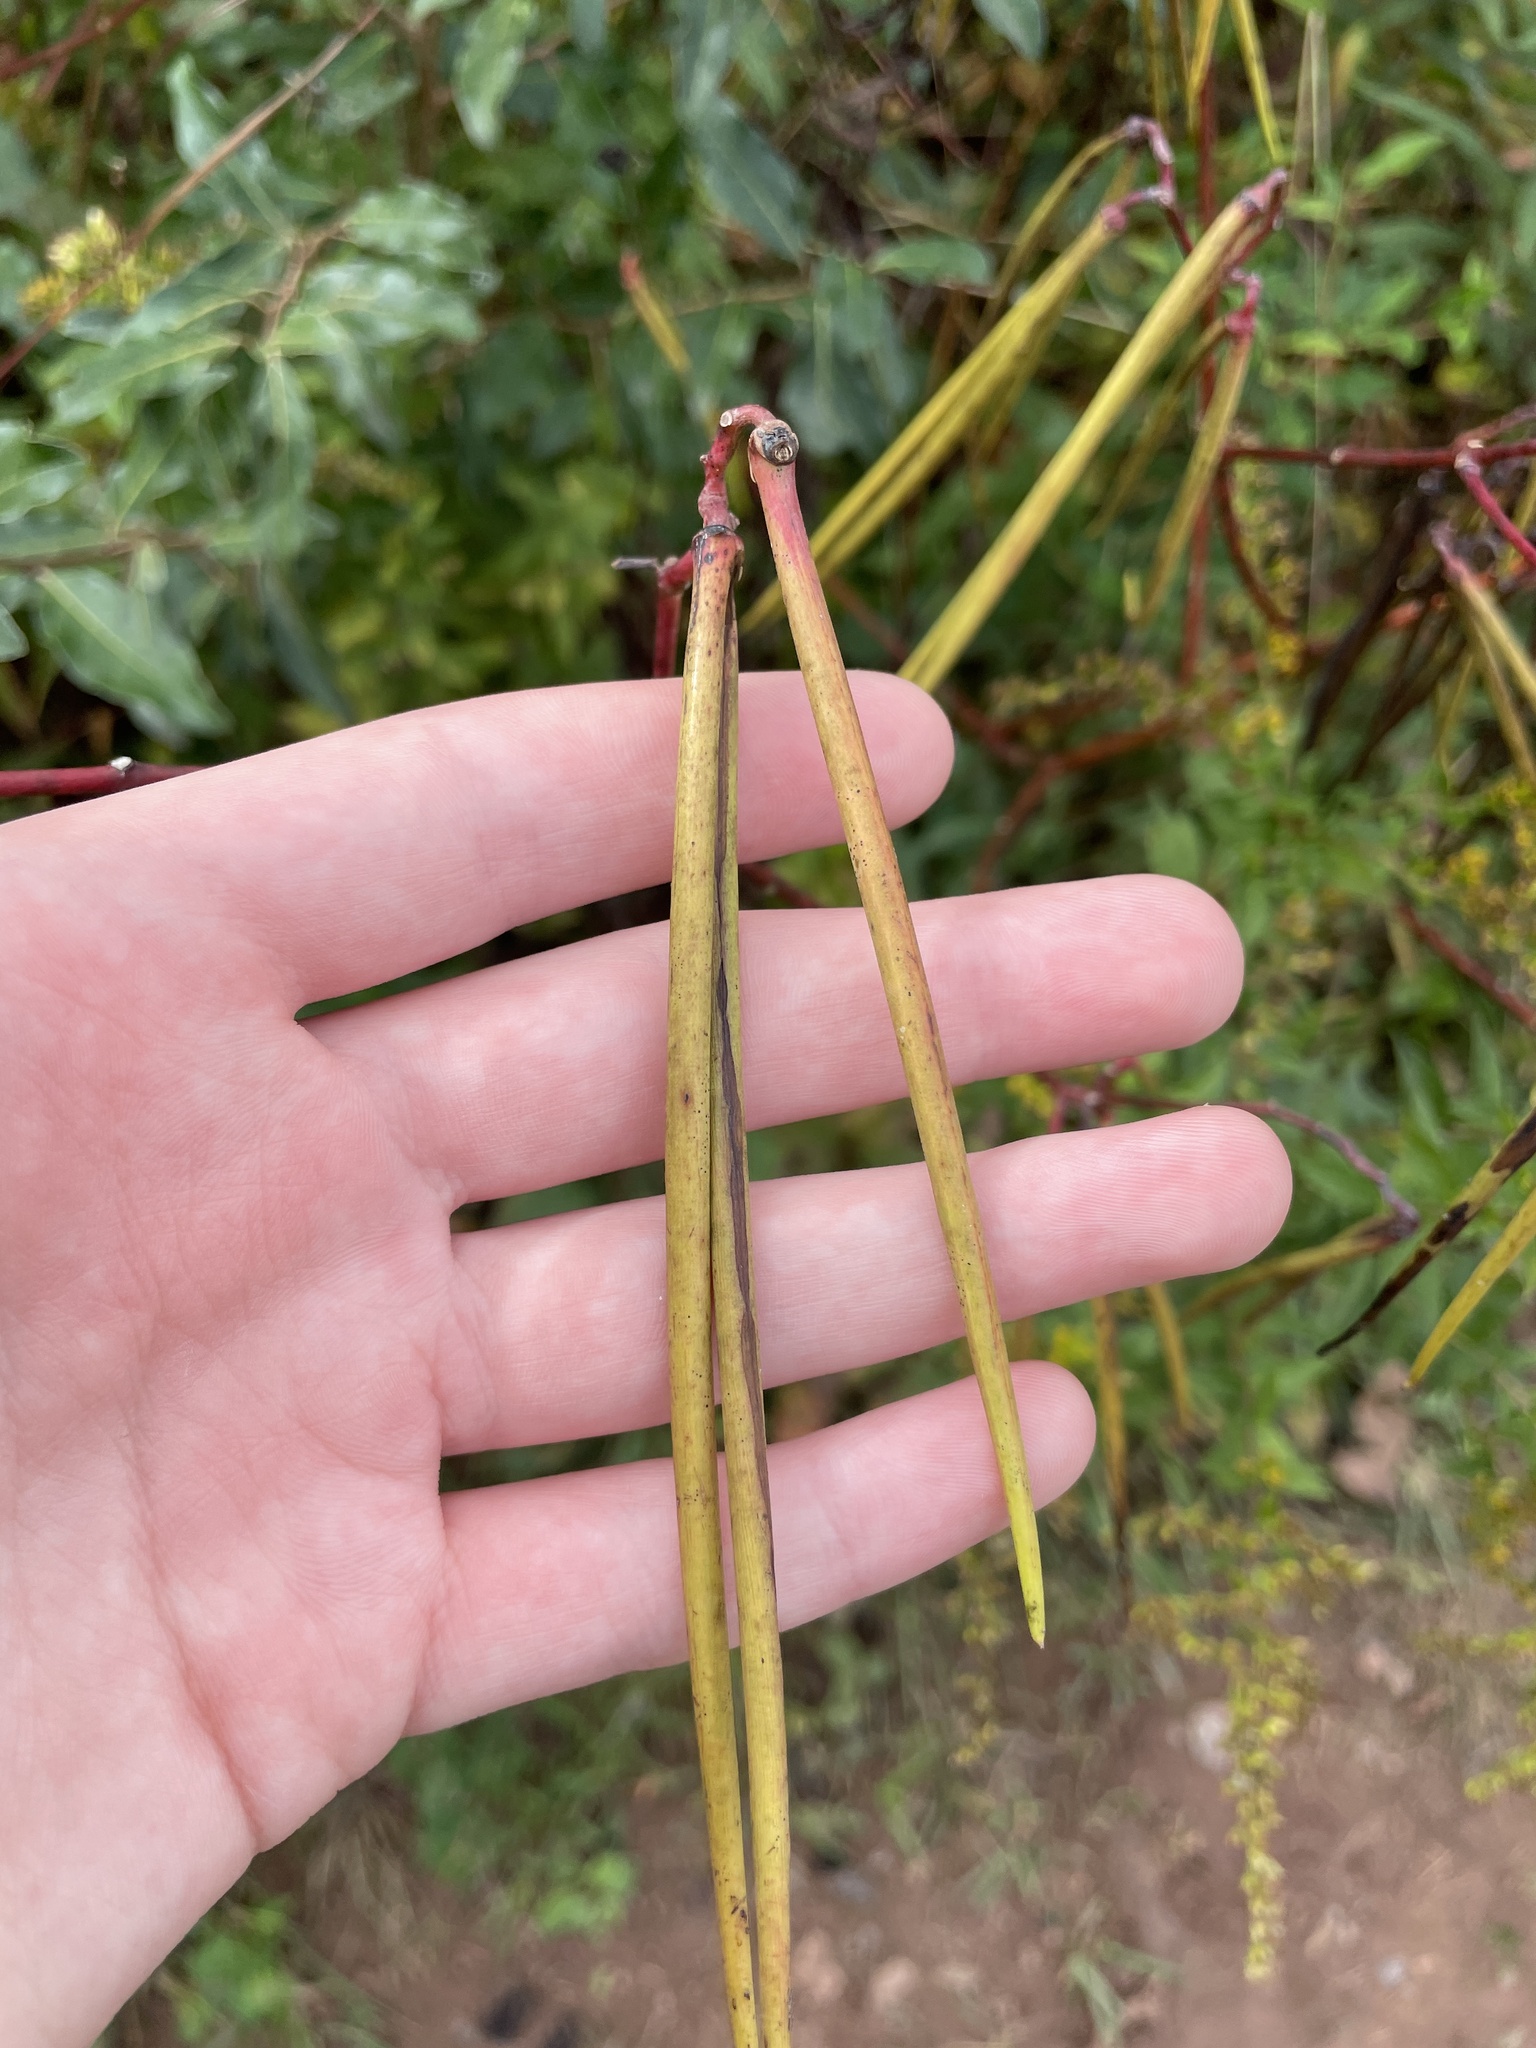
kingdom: Plantae
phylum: Tracheophyta
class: Magnoliopsida
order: Gentianales
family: Apocynaceae
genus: Apocynum
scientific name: Apocynum cannabinum
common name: Hemp dogbane
